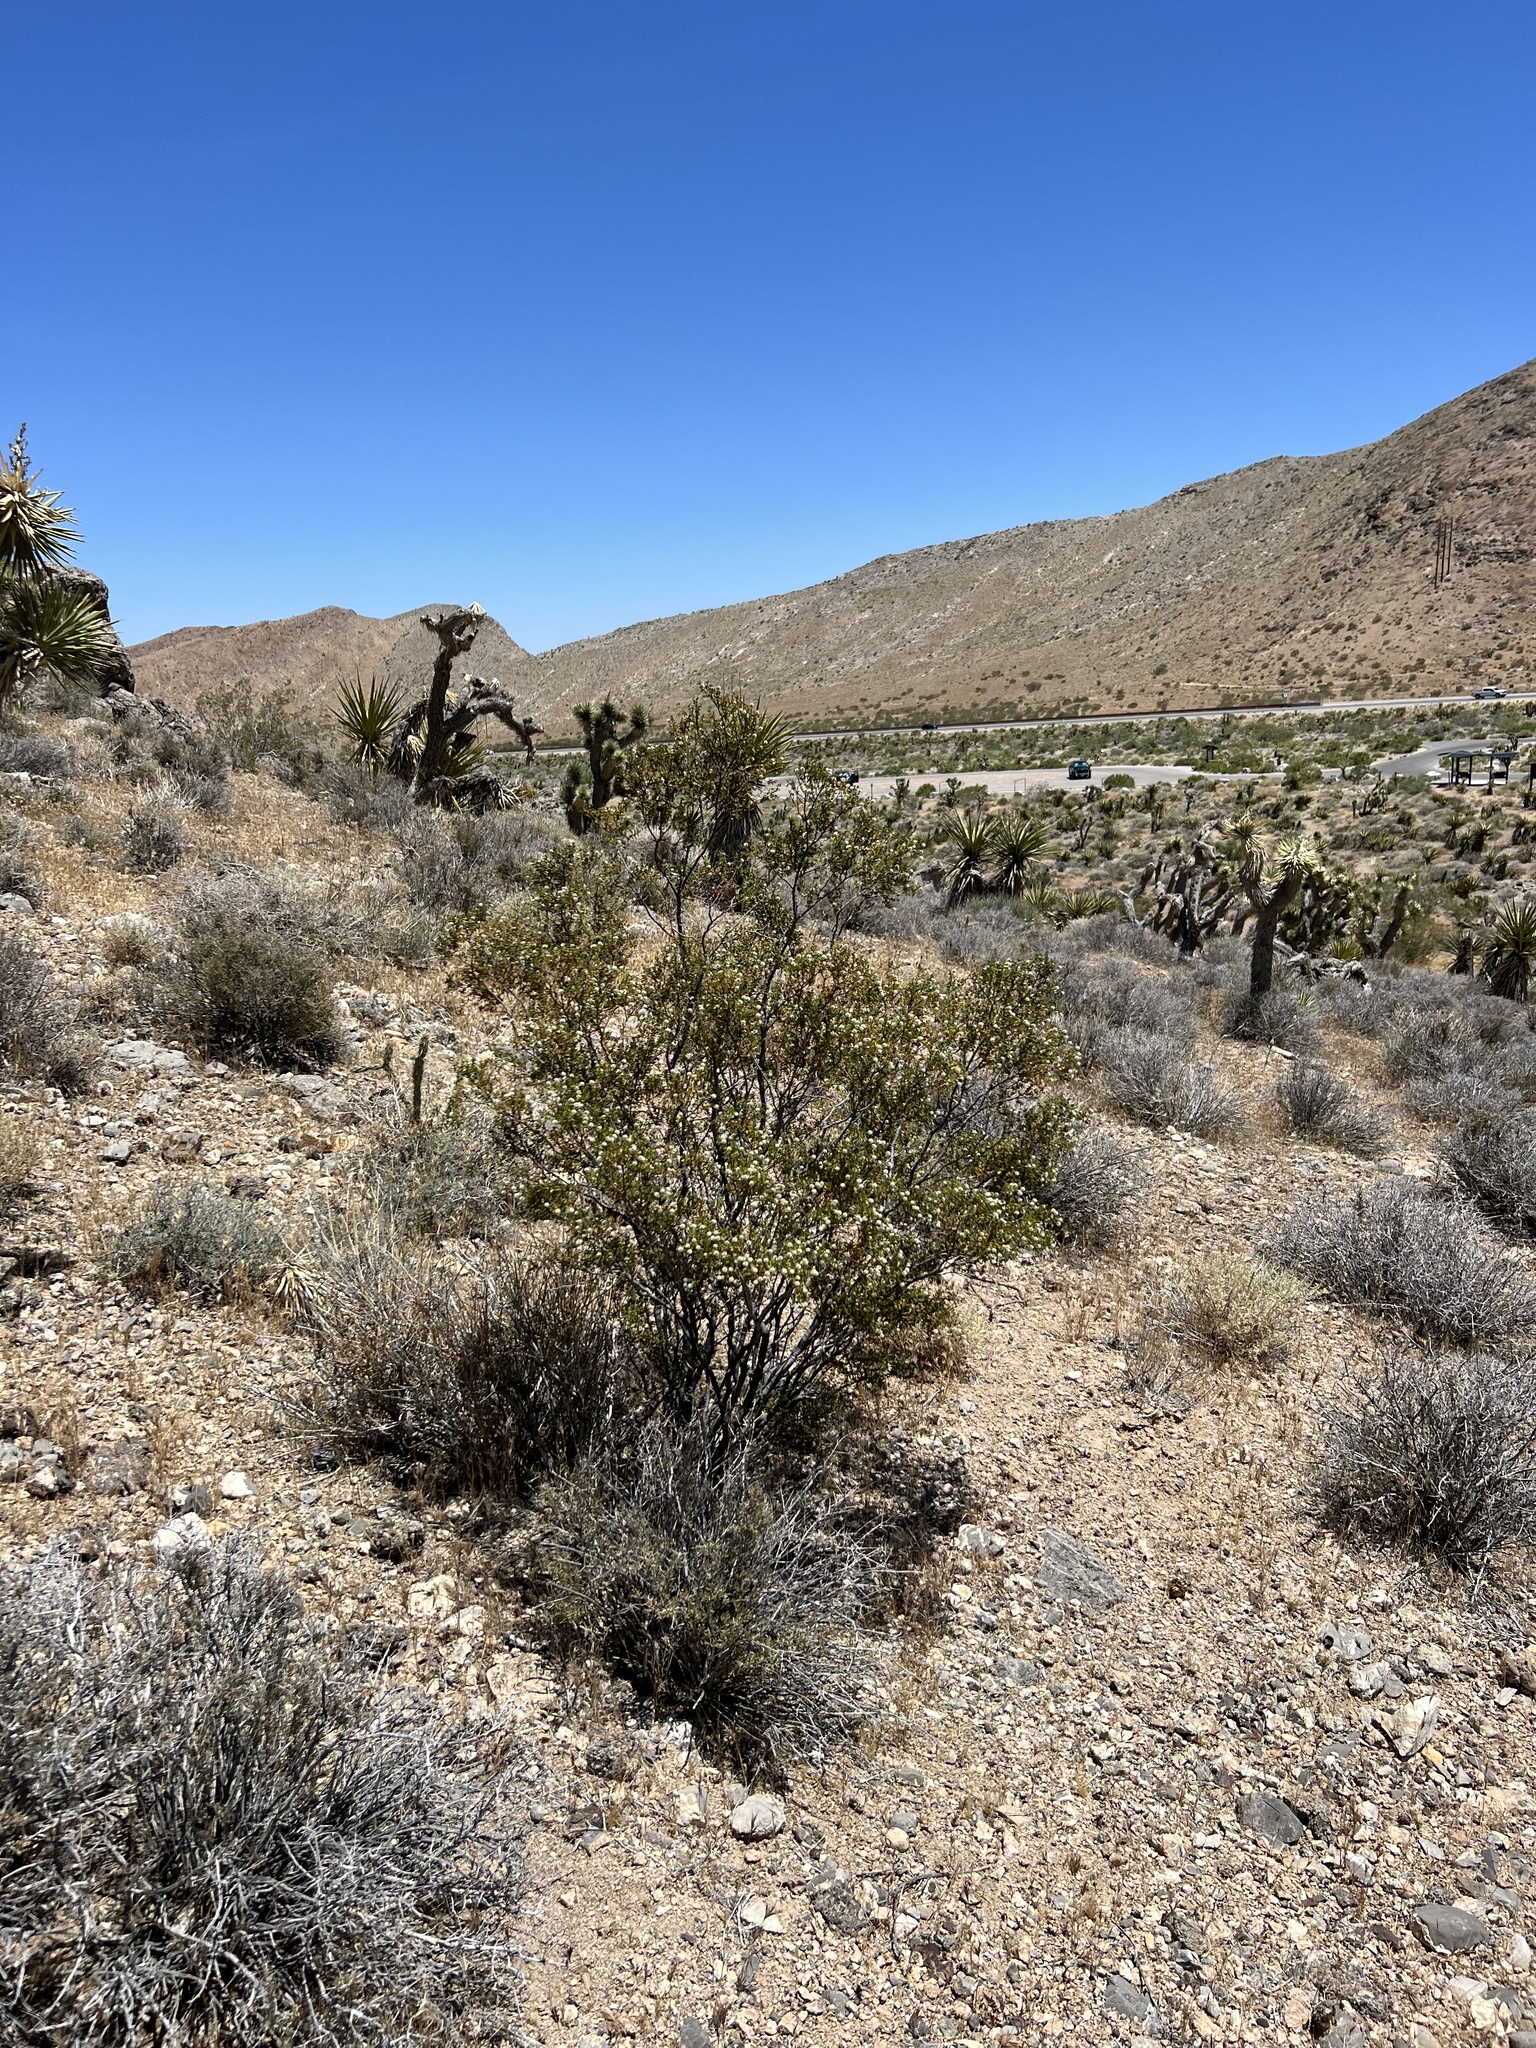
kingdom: Plantae
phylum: Tracheophyta
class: Magnoliopsida
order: Zygophyllales
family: Zygophyllaceae
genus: Larrea
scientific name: Larrea tridentata
